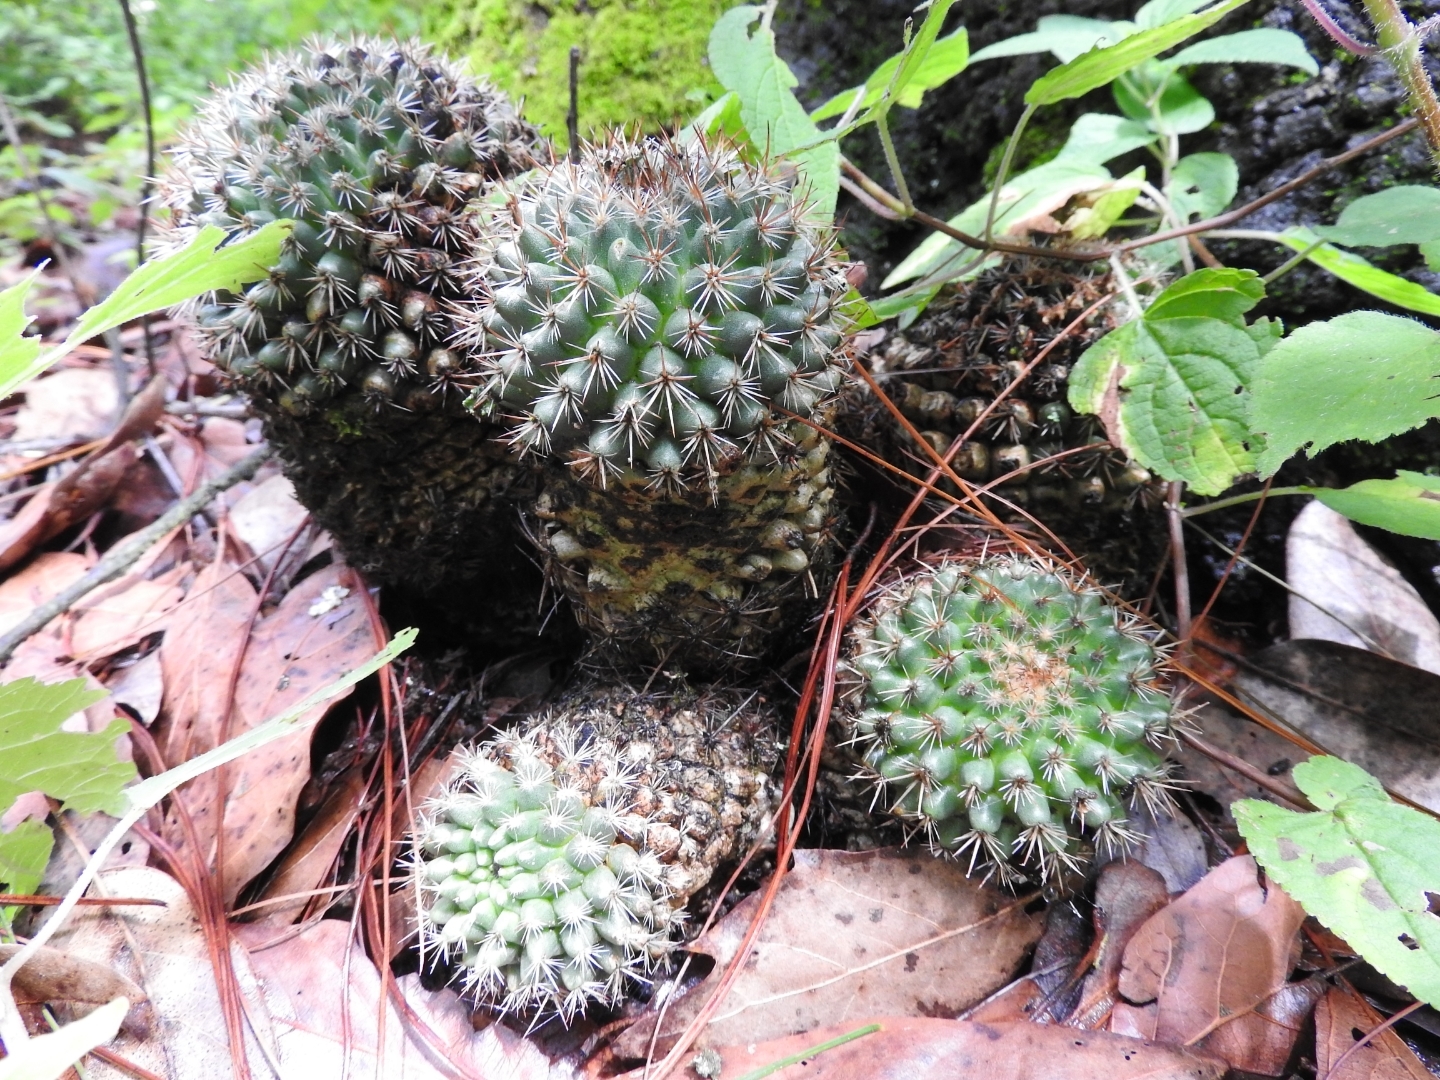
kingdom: Plantae
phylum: Tracheophyta
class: Magnoliopsida
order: Caryophyllales
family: Cactaceae
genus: Mammillaria
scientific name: Mammillaria rhodantha
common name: Rainbow pincushion
